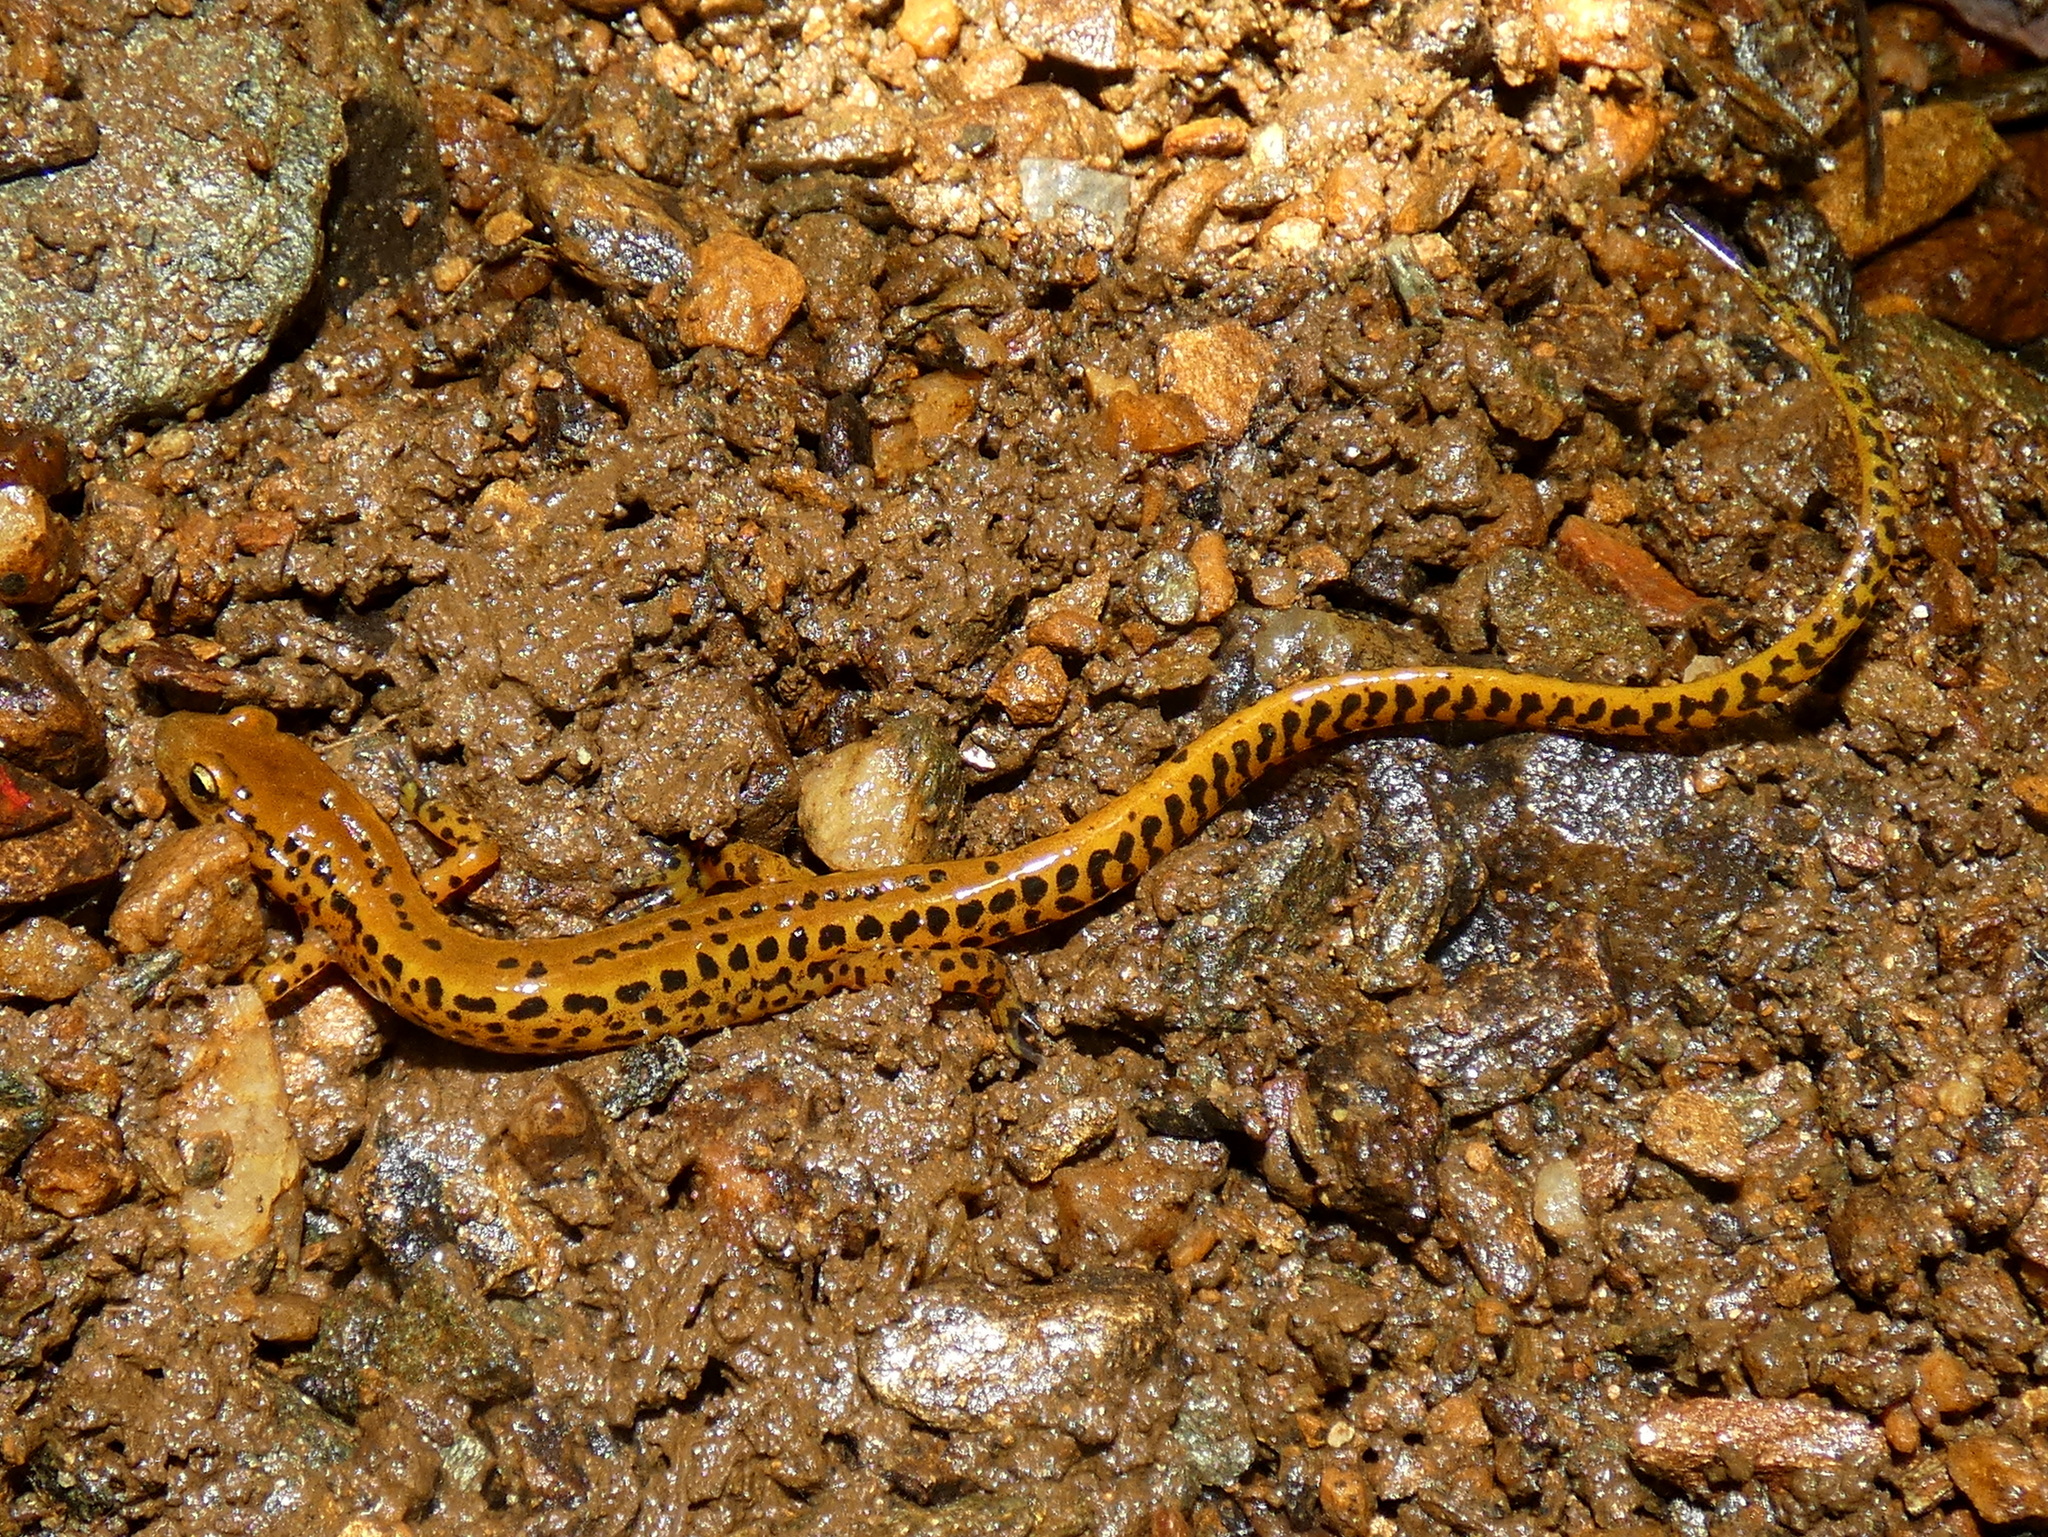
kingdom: Animalia
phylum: Chordata
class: Amphibia
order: Caudata
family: Plethodontidae
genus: Eurycea
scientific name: Eurycea longicauda
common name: Long-tailed salamander
